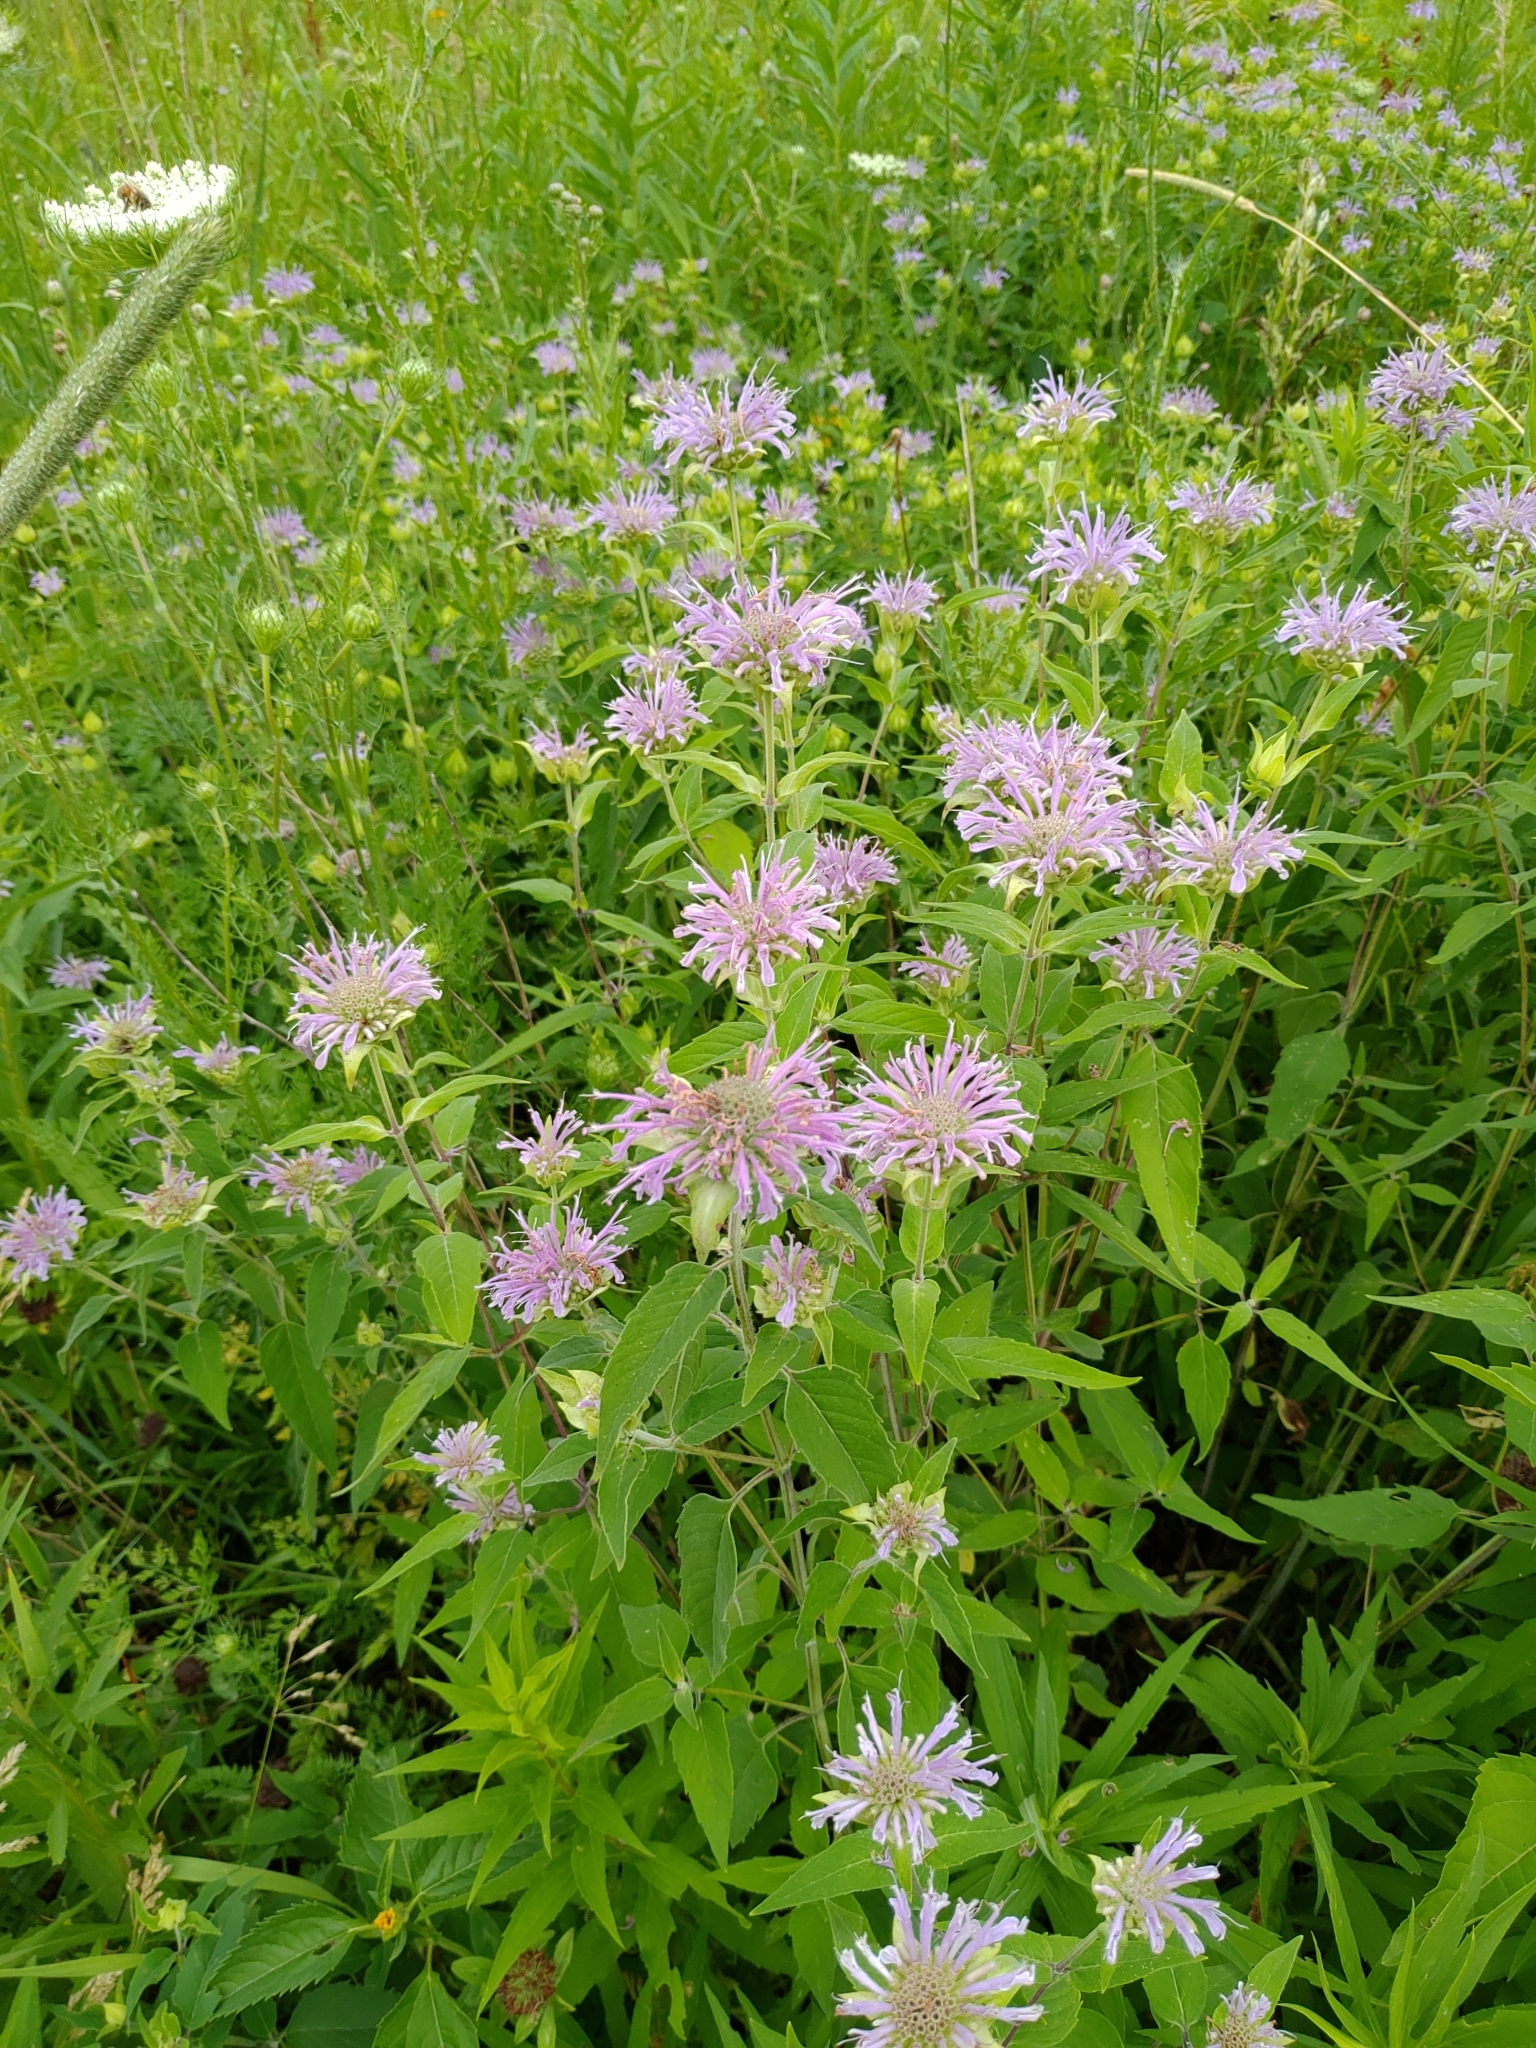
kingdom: Plantae
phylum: Tracheophyta
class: Magnoliopsida
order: Lamiales
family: Lamiaceae
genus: Monarda
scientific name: Monarda fistulosa
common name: Purple beebalm
